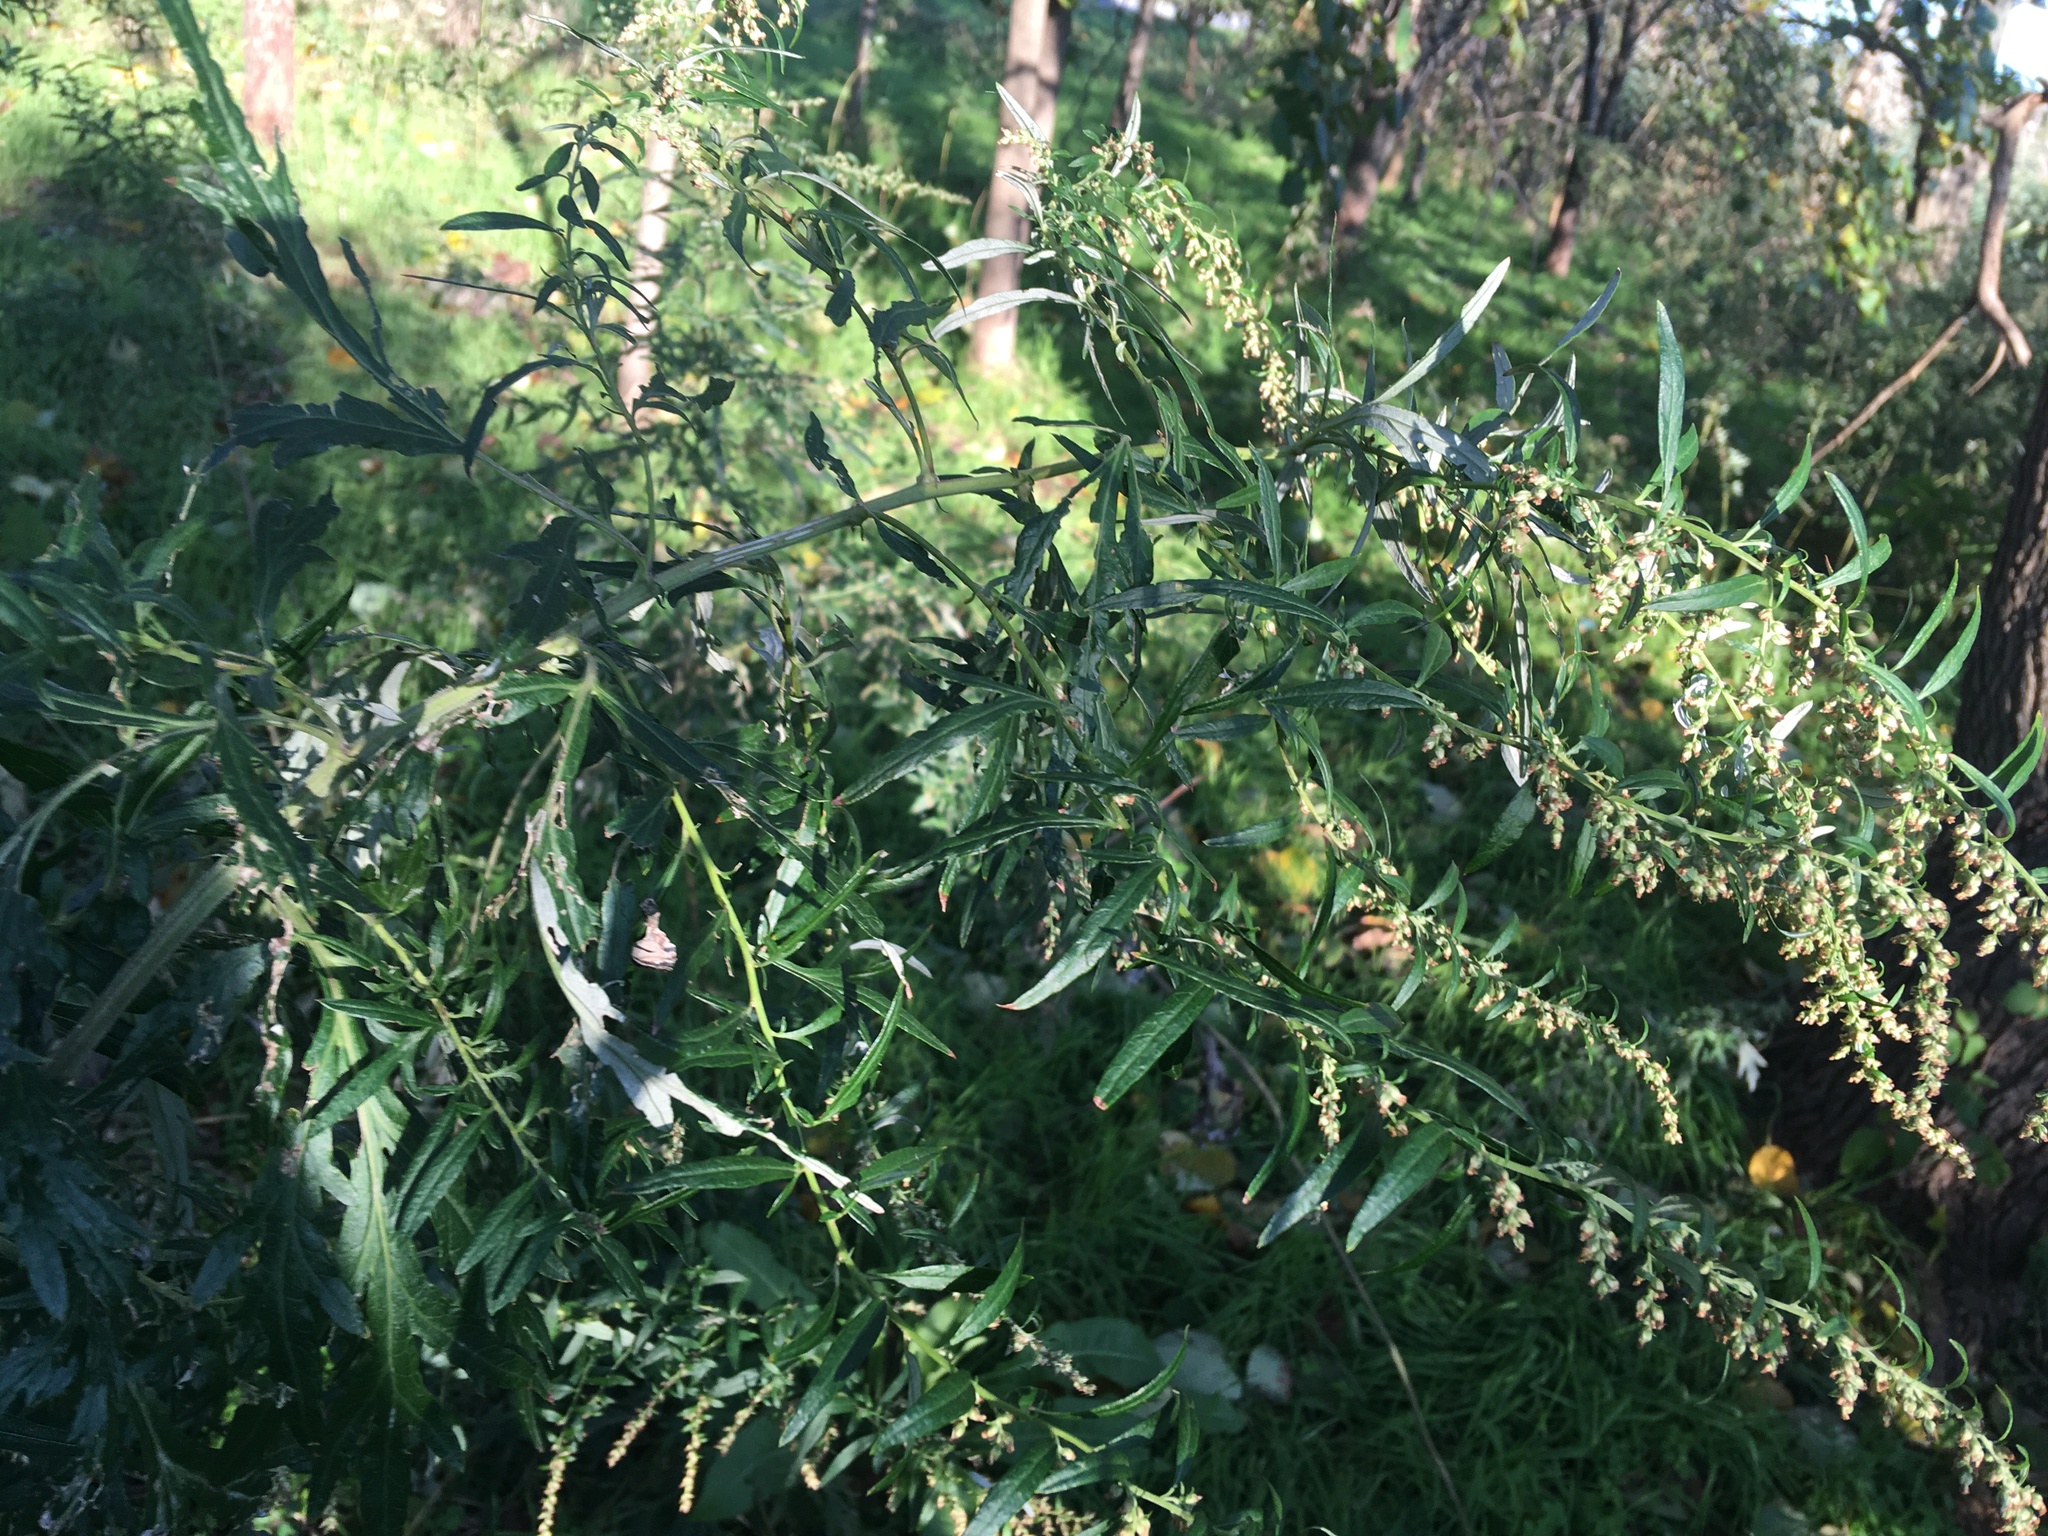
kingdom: Plantae
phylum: Tracheophyta
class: Magnoliopsida
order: Asterales
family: Asteraceae
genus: Artemisia
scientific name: Artemisia vulgaris
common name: Mugwort
